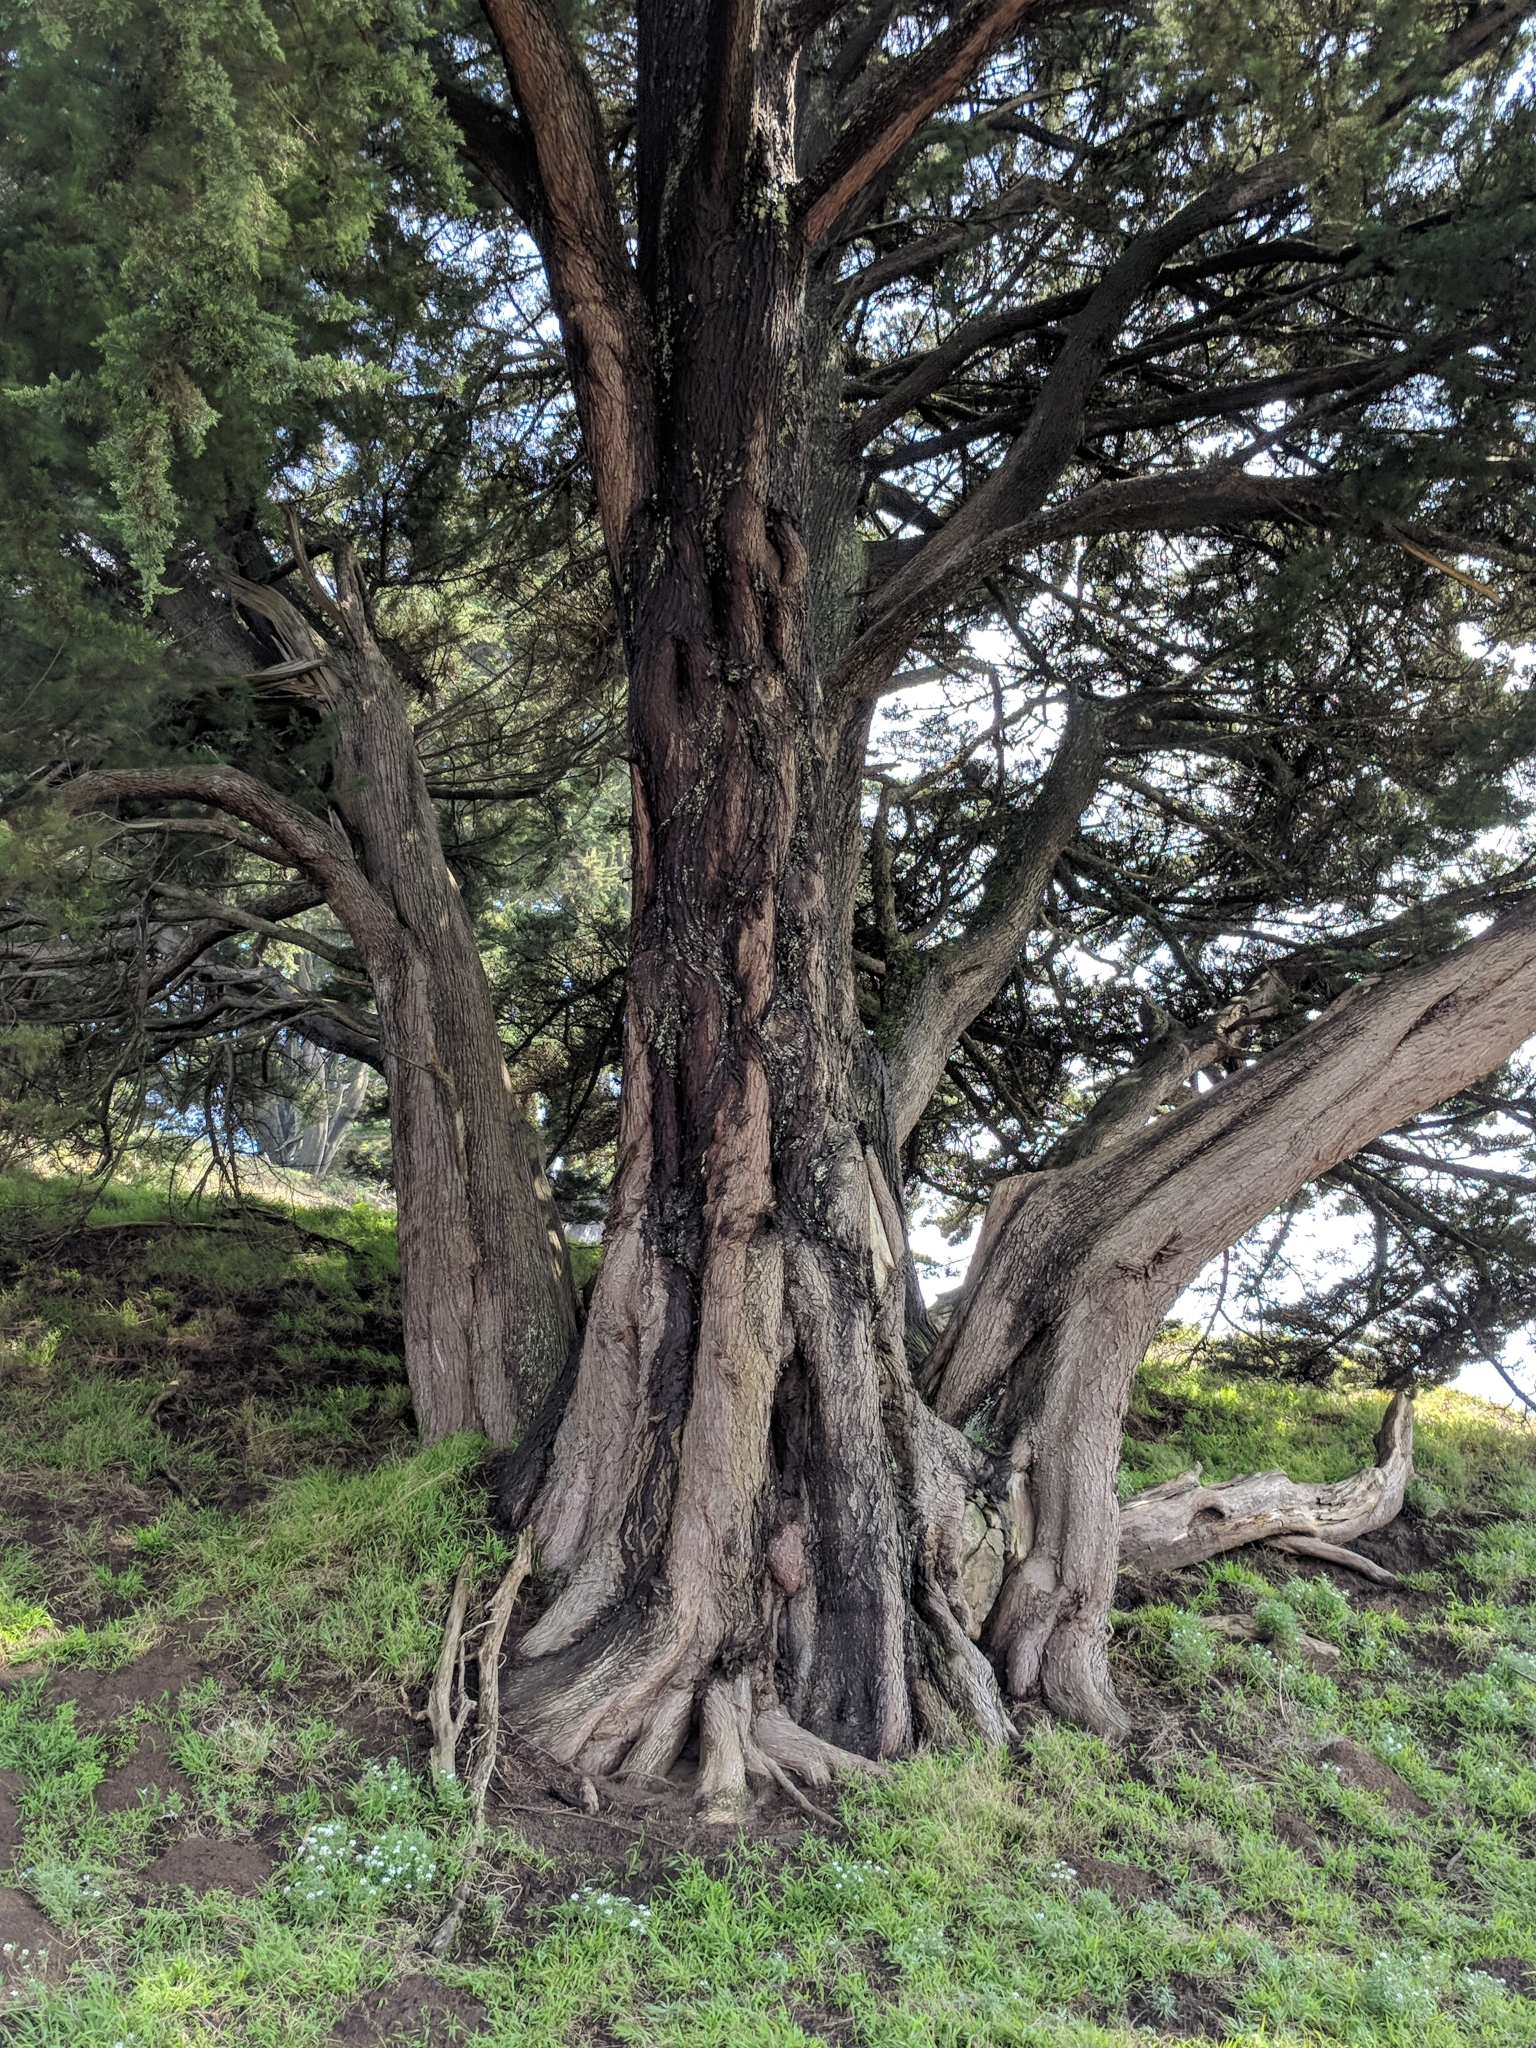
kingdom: Plantae
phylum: Tracheophyta
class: Pinopsida
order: Pinales
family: Cupressaceae
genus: Cupressus
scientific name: Cupressus macrocarpa
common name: Monterey cypress
